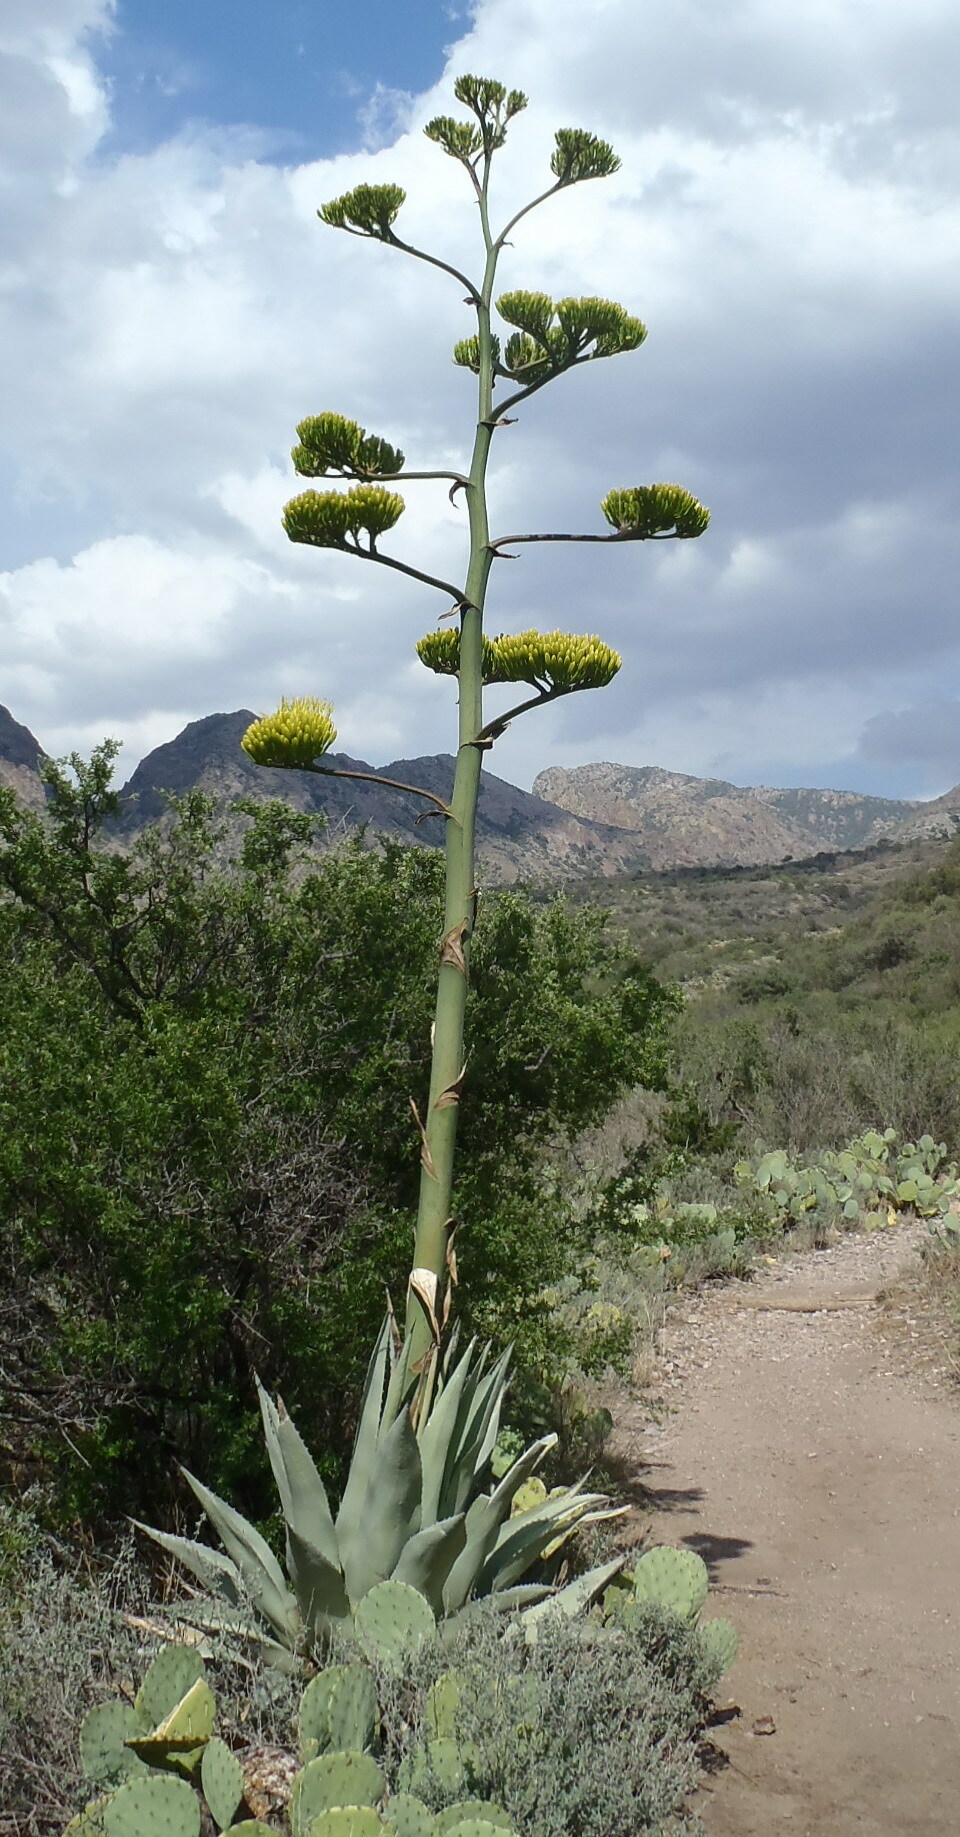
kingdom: Plantae
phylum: Tracheophyta
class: Liliopsida
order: Asparagales
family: Asparagaceae
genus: Agave
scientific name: Agave havardiana
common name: Havard agave
